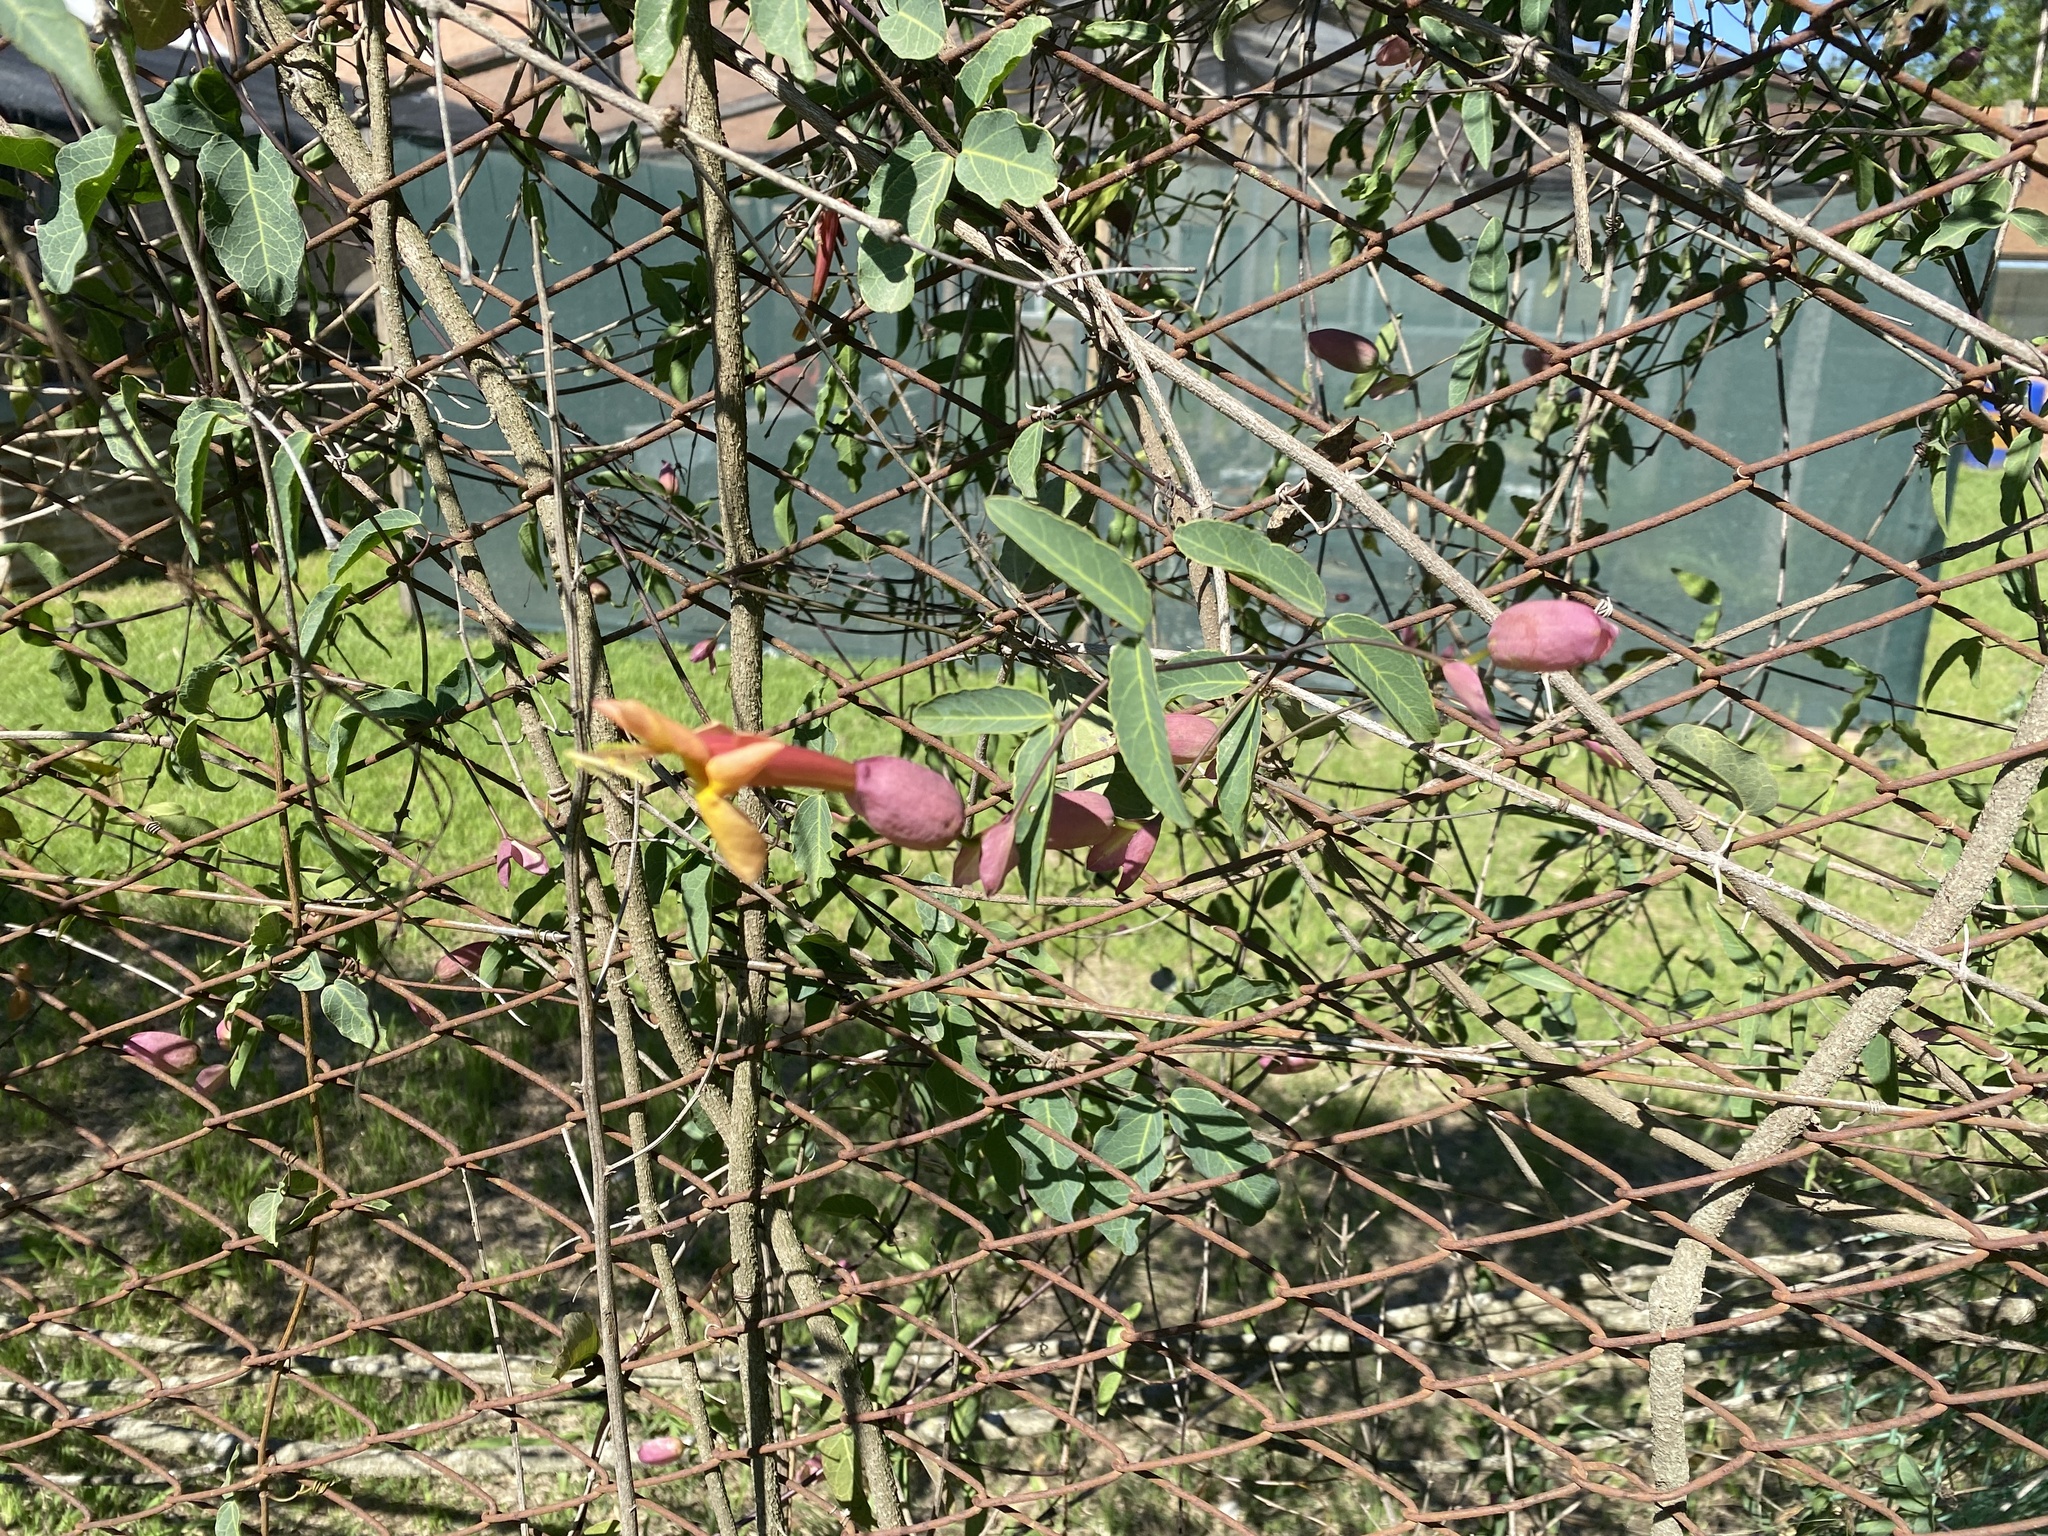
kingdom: Plantae
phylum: Tracheophyta
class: Magnoliopsida
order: Lamiales
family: Bignoniaceae
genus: Dolichandra
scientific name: Dolichandra cynanchoides
